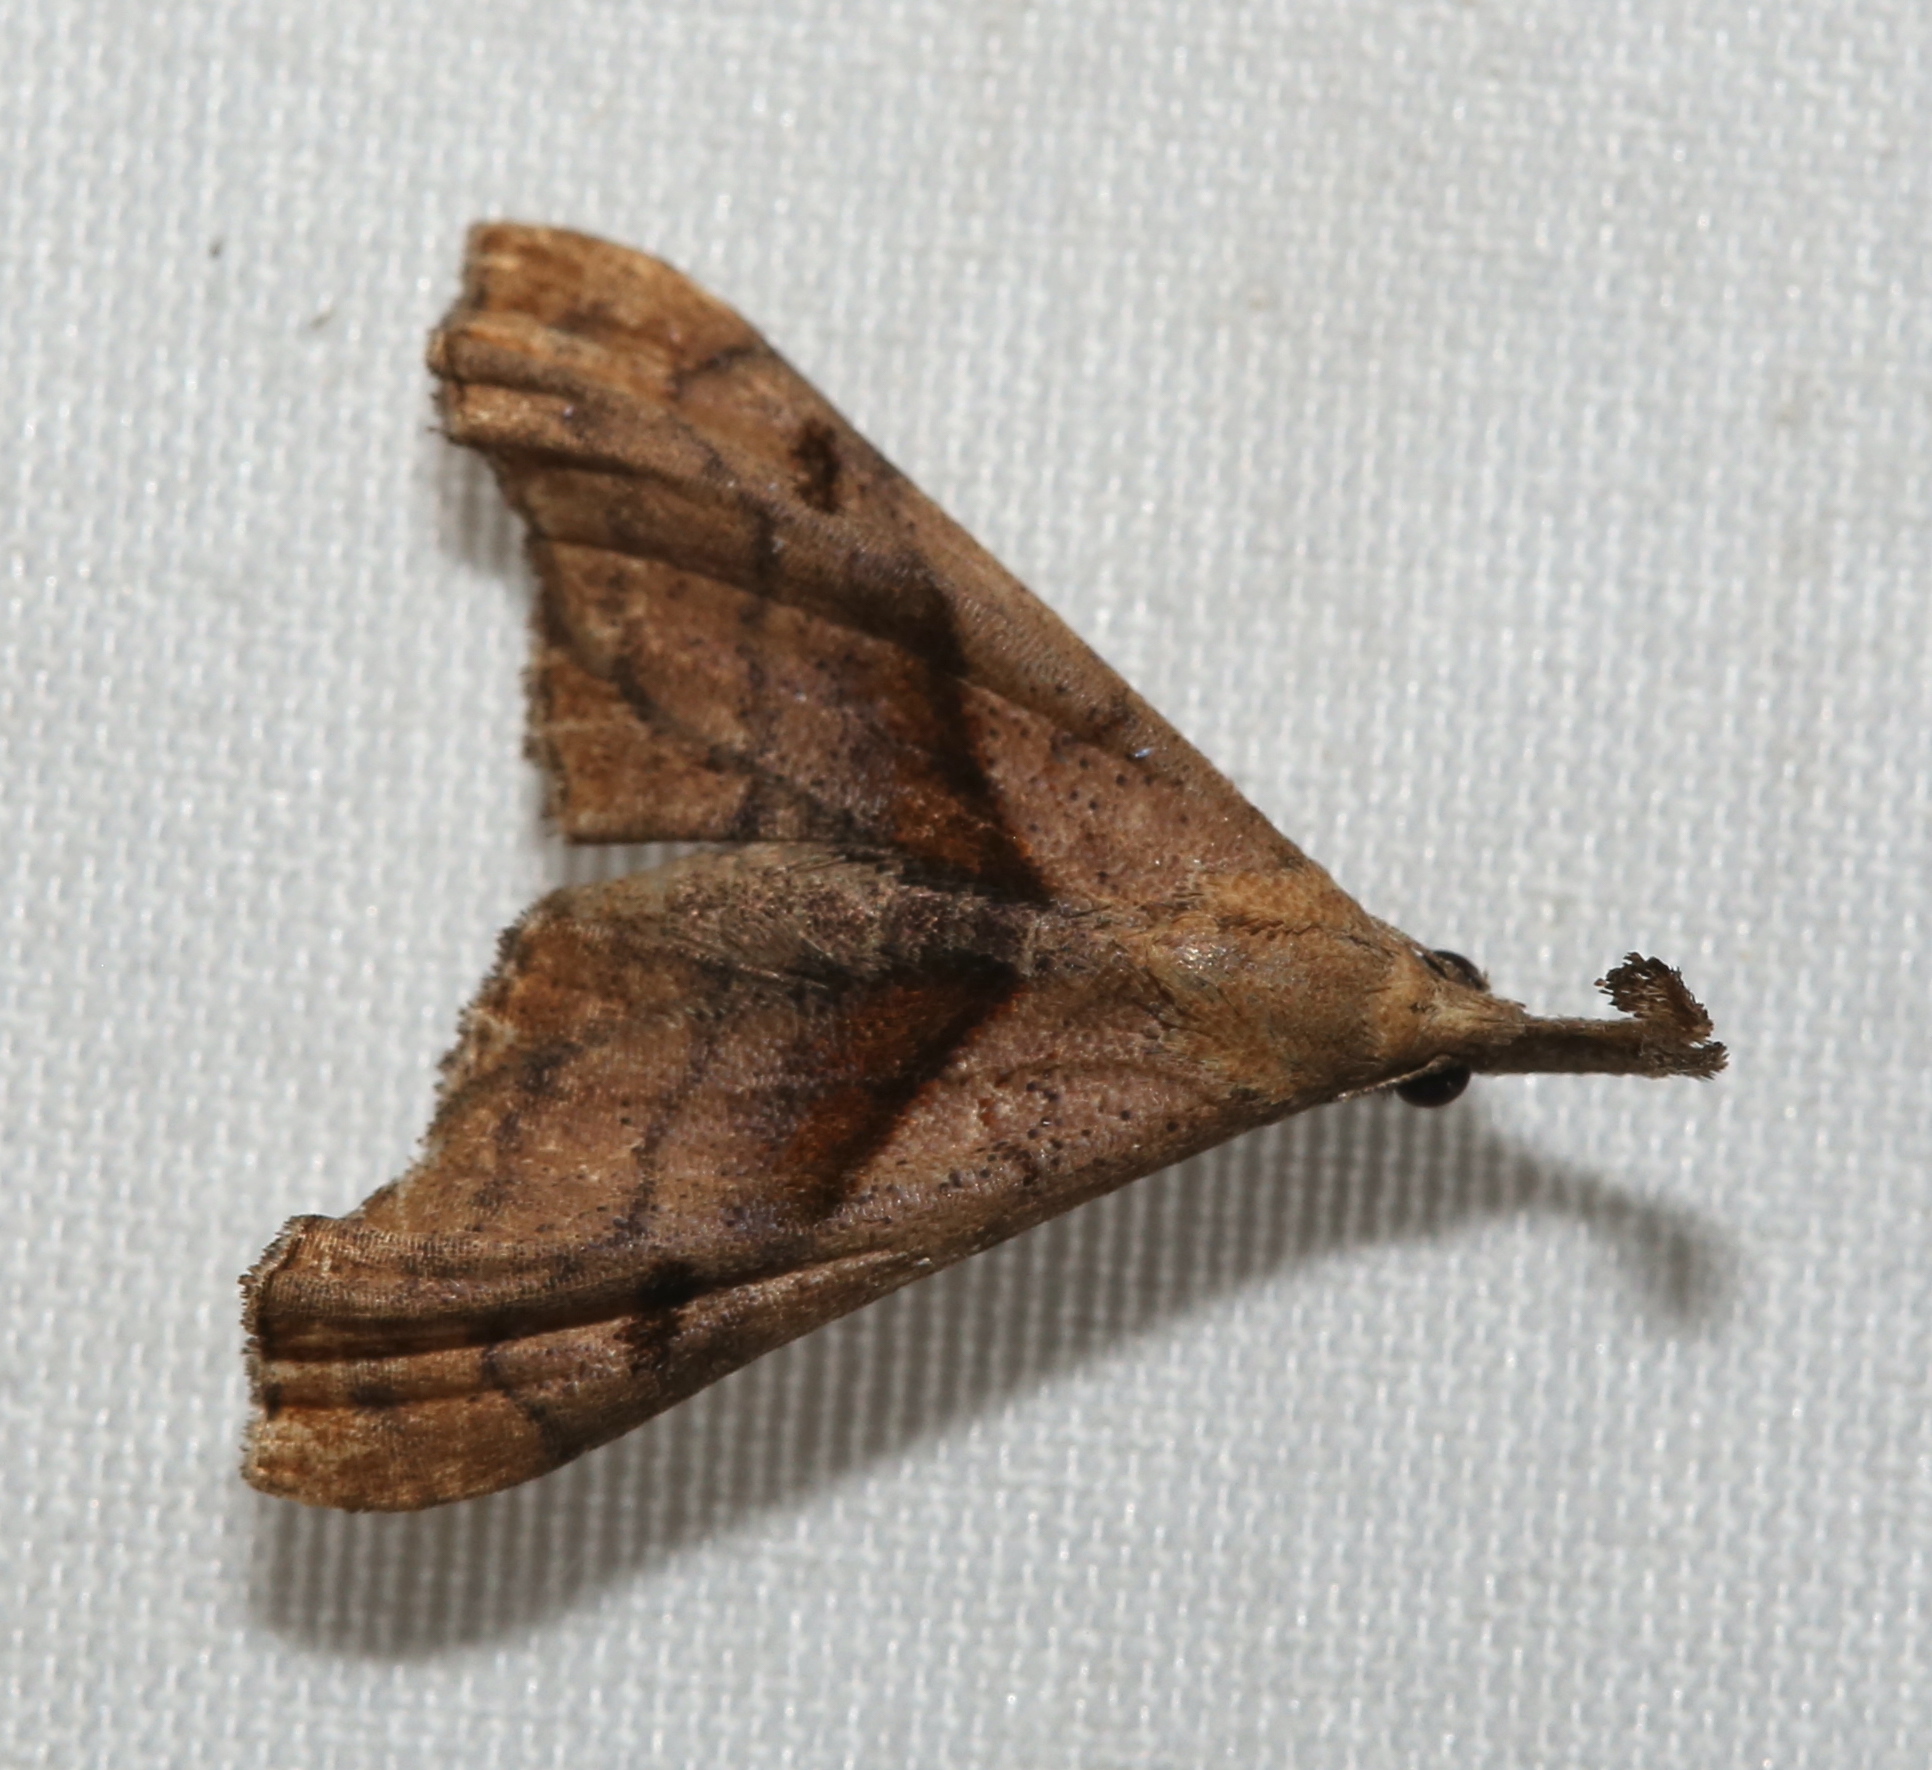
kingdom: Animalia
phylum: Arthropoda
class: Insecta
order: Lepidoptera
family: Erebidae
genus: Palthis
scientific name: Palthis angulalis
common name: Dark-spotted palthis moth
